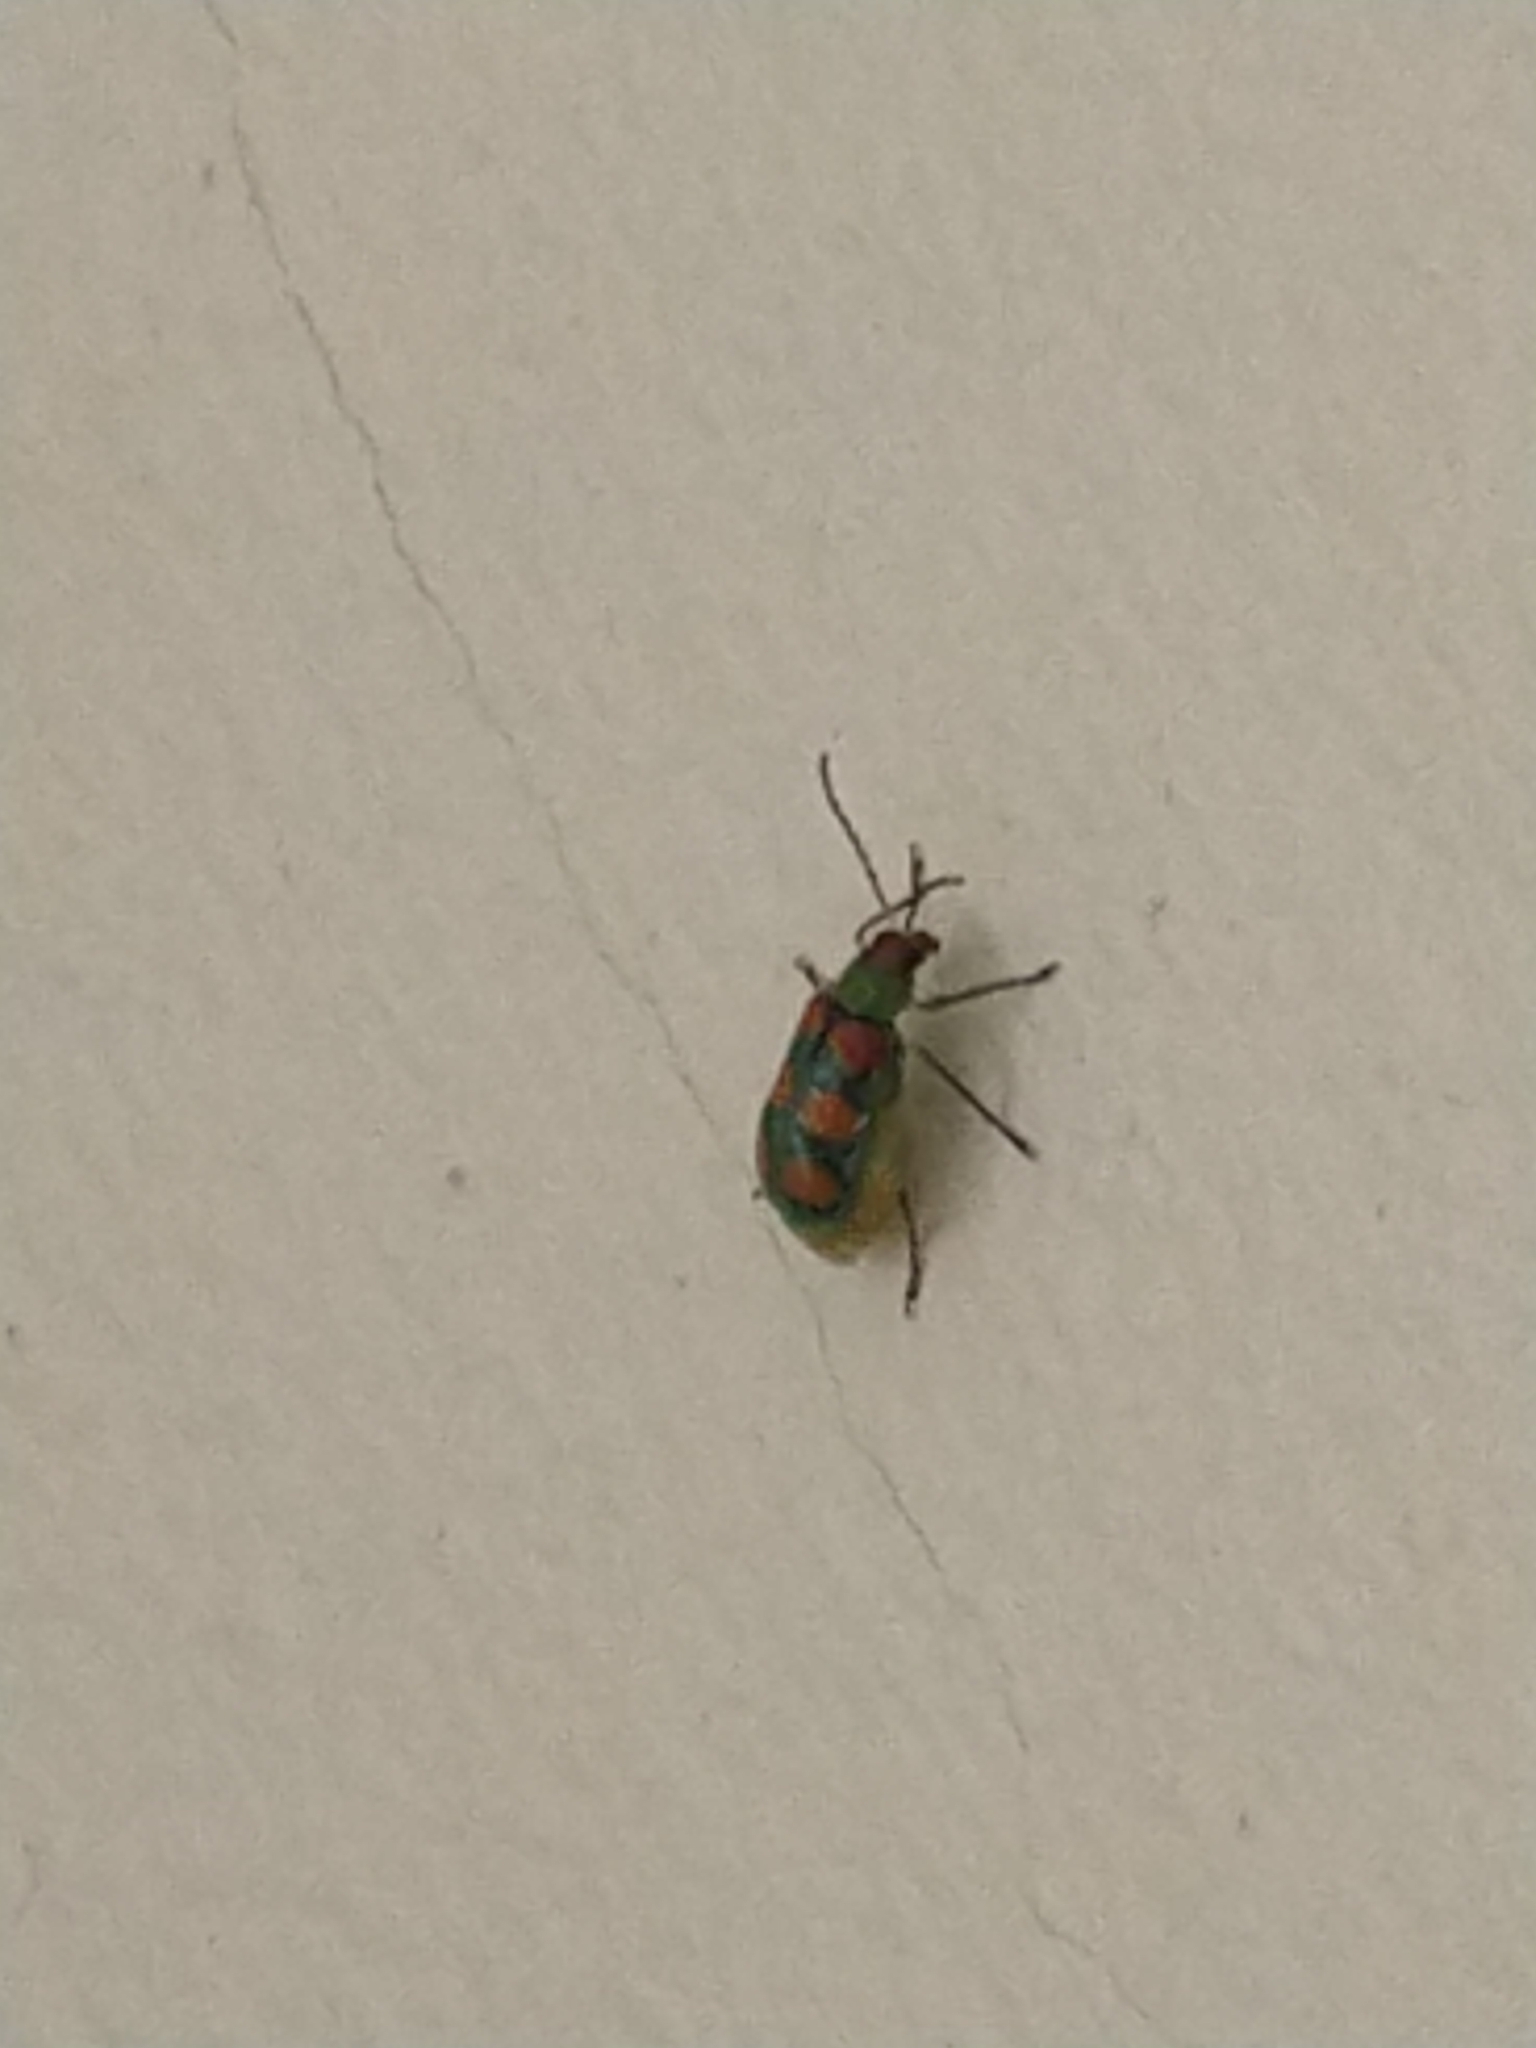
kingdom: Animalia
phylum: Arthropoda
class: Insecta
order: Coleoptera
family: Chrysomelidae
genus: Diabrotica
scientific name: Diabrotica speciosa
